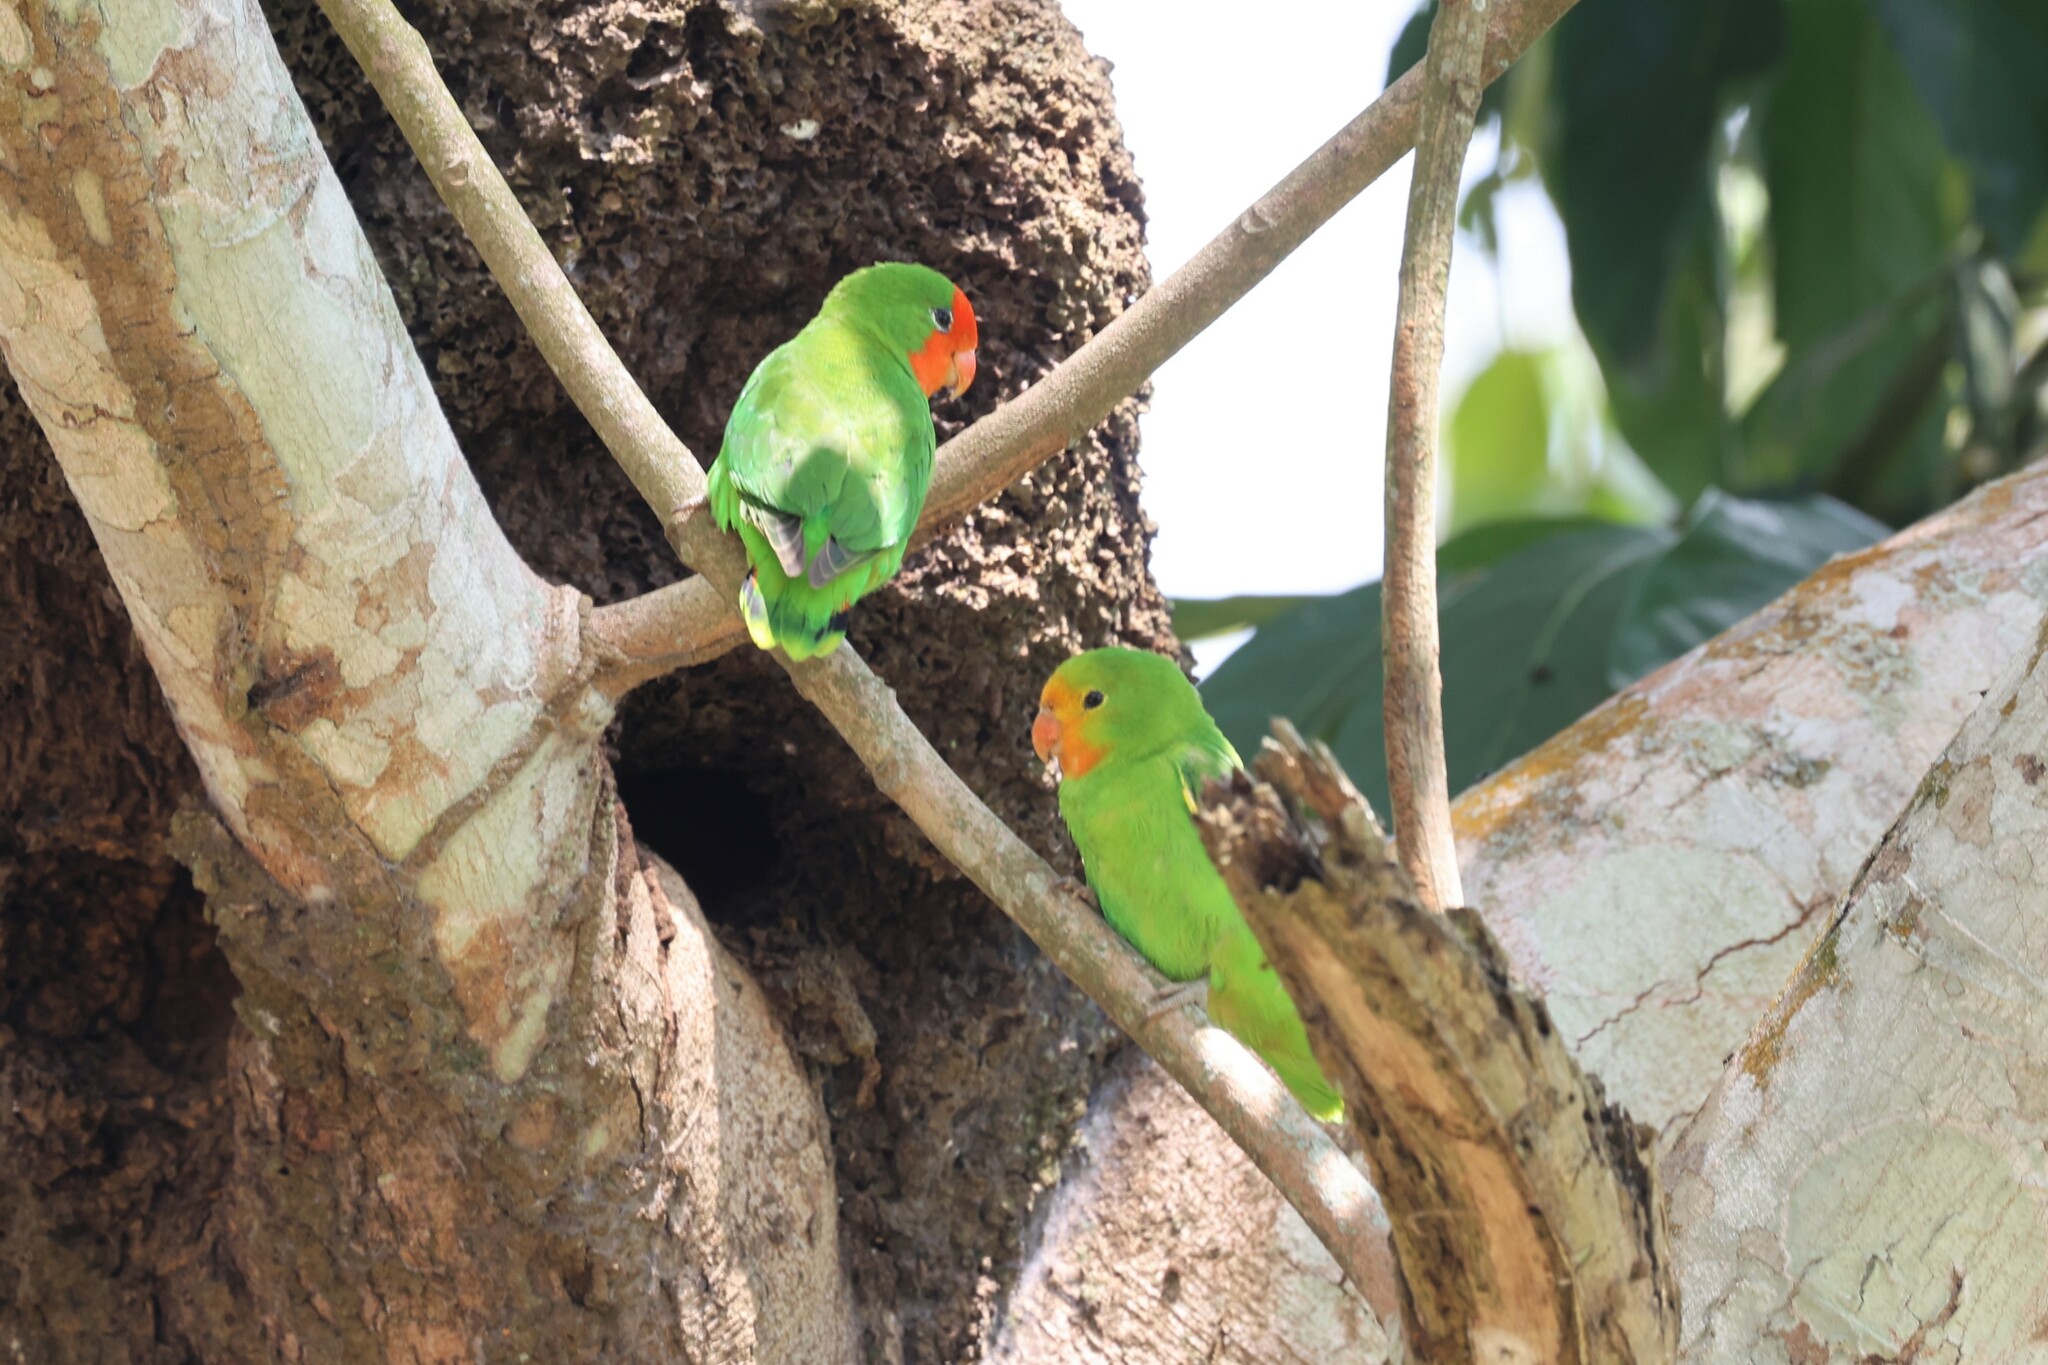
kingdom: Animalia
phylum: Chordata
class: Aves
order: Psittaciformes
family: Psittacidae
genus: Agapornis
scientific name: Agapornis pullarius
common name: Red-headed lovebird
